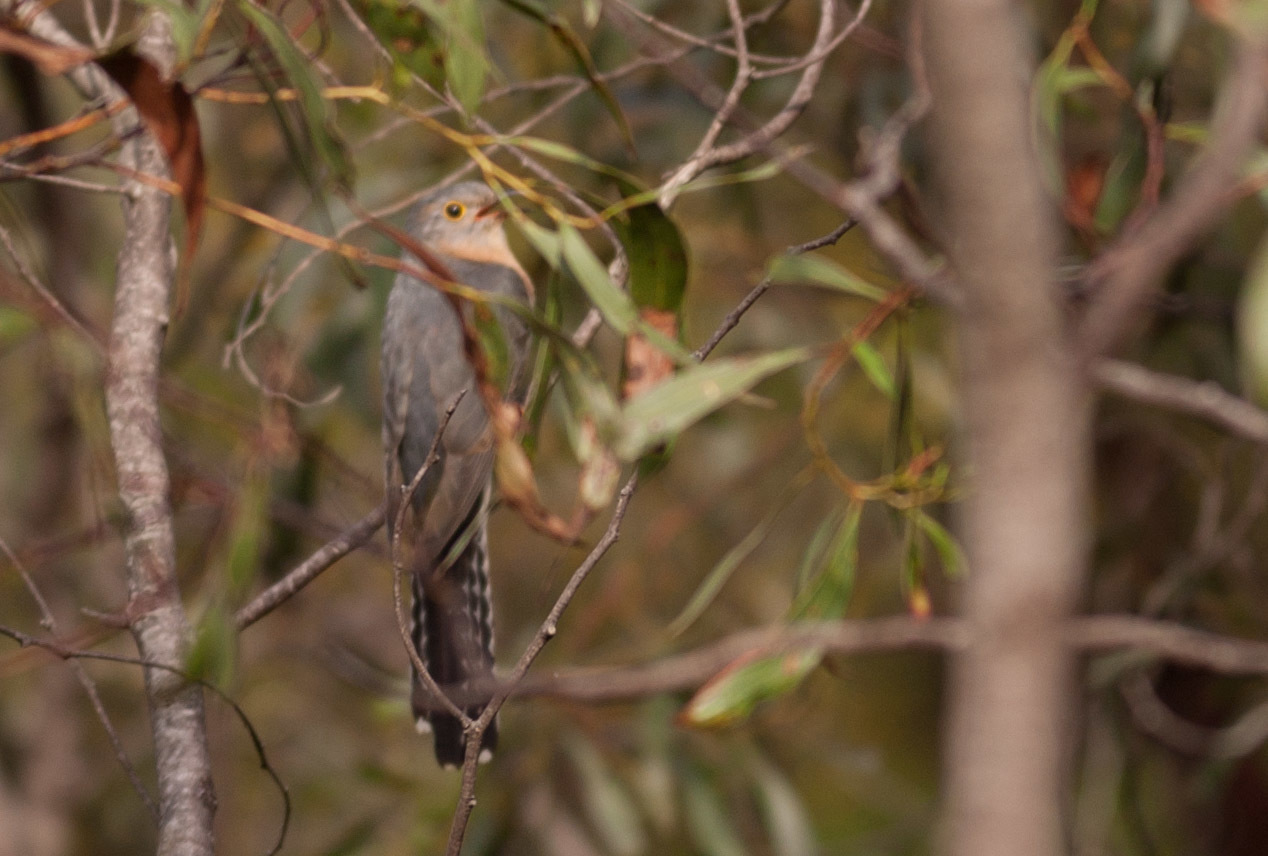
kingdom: Animalia
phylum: Chordata
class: Aves
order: Cuculiformes
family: Cuculidae
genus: Cacomantis
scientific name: Cacomantis flabelliformis
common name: Fan-tailed cuckoo
